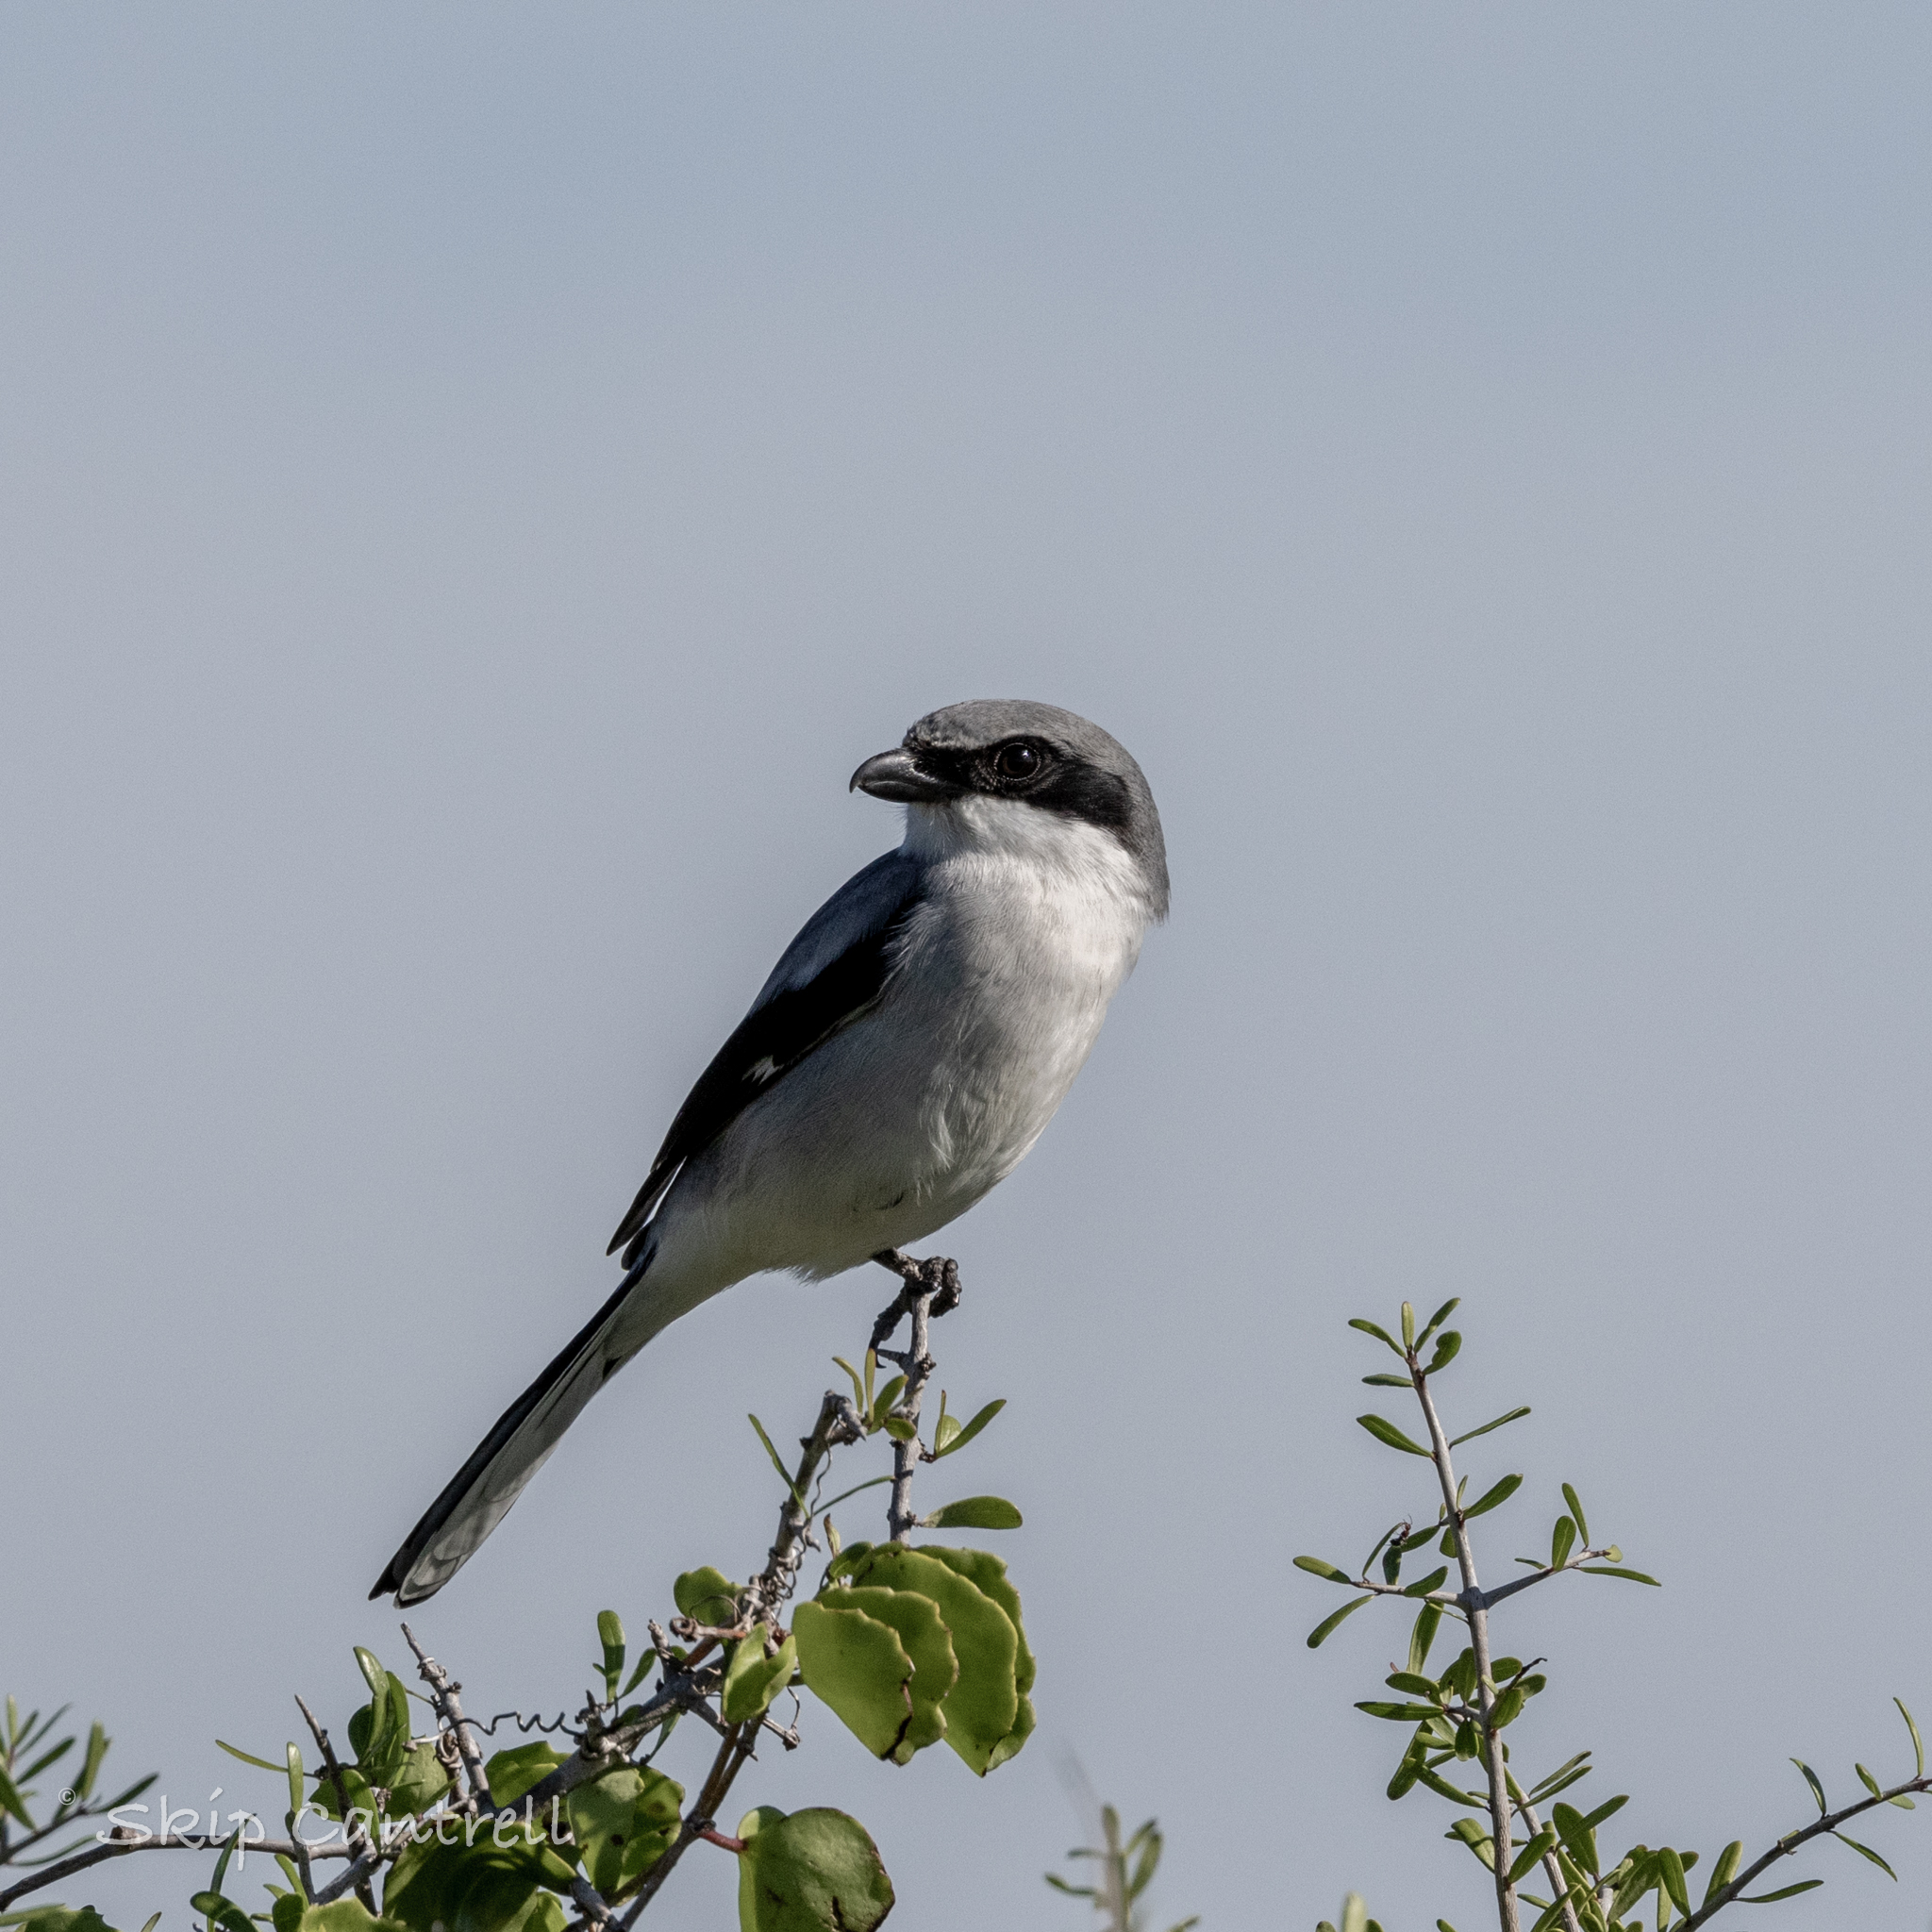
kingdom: Animalia
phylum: Chordata
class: Aves
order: Passeriformes
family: Laniidae
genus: Lanius
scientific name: Lanius ludovicianus
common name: Loggerhead shrike
